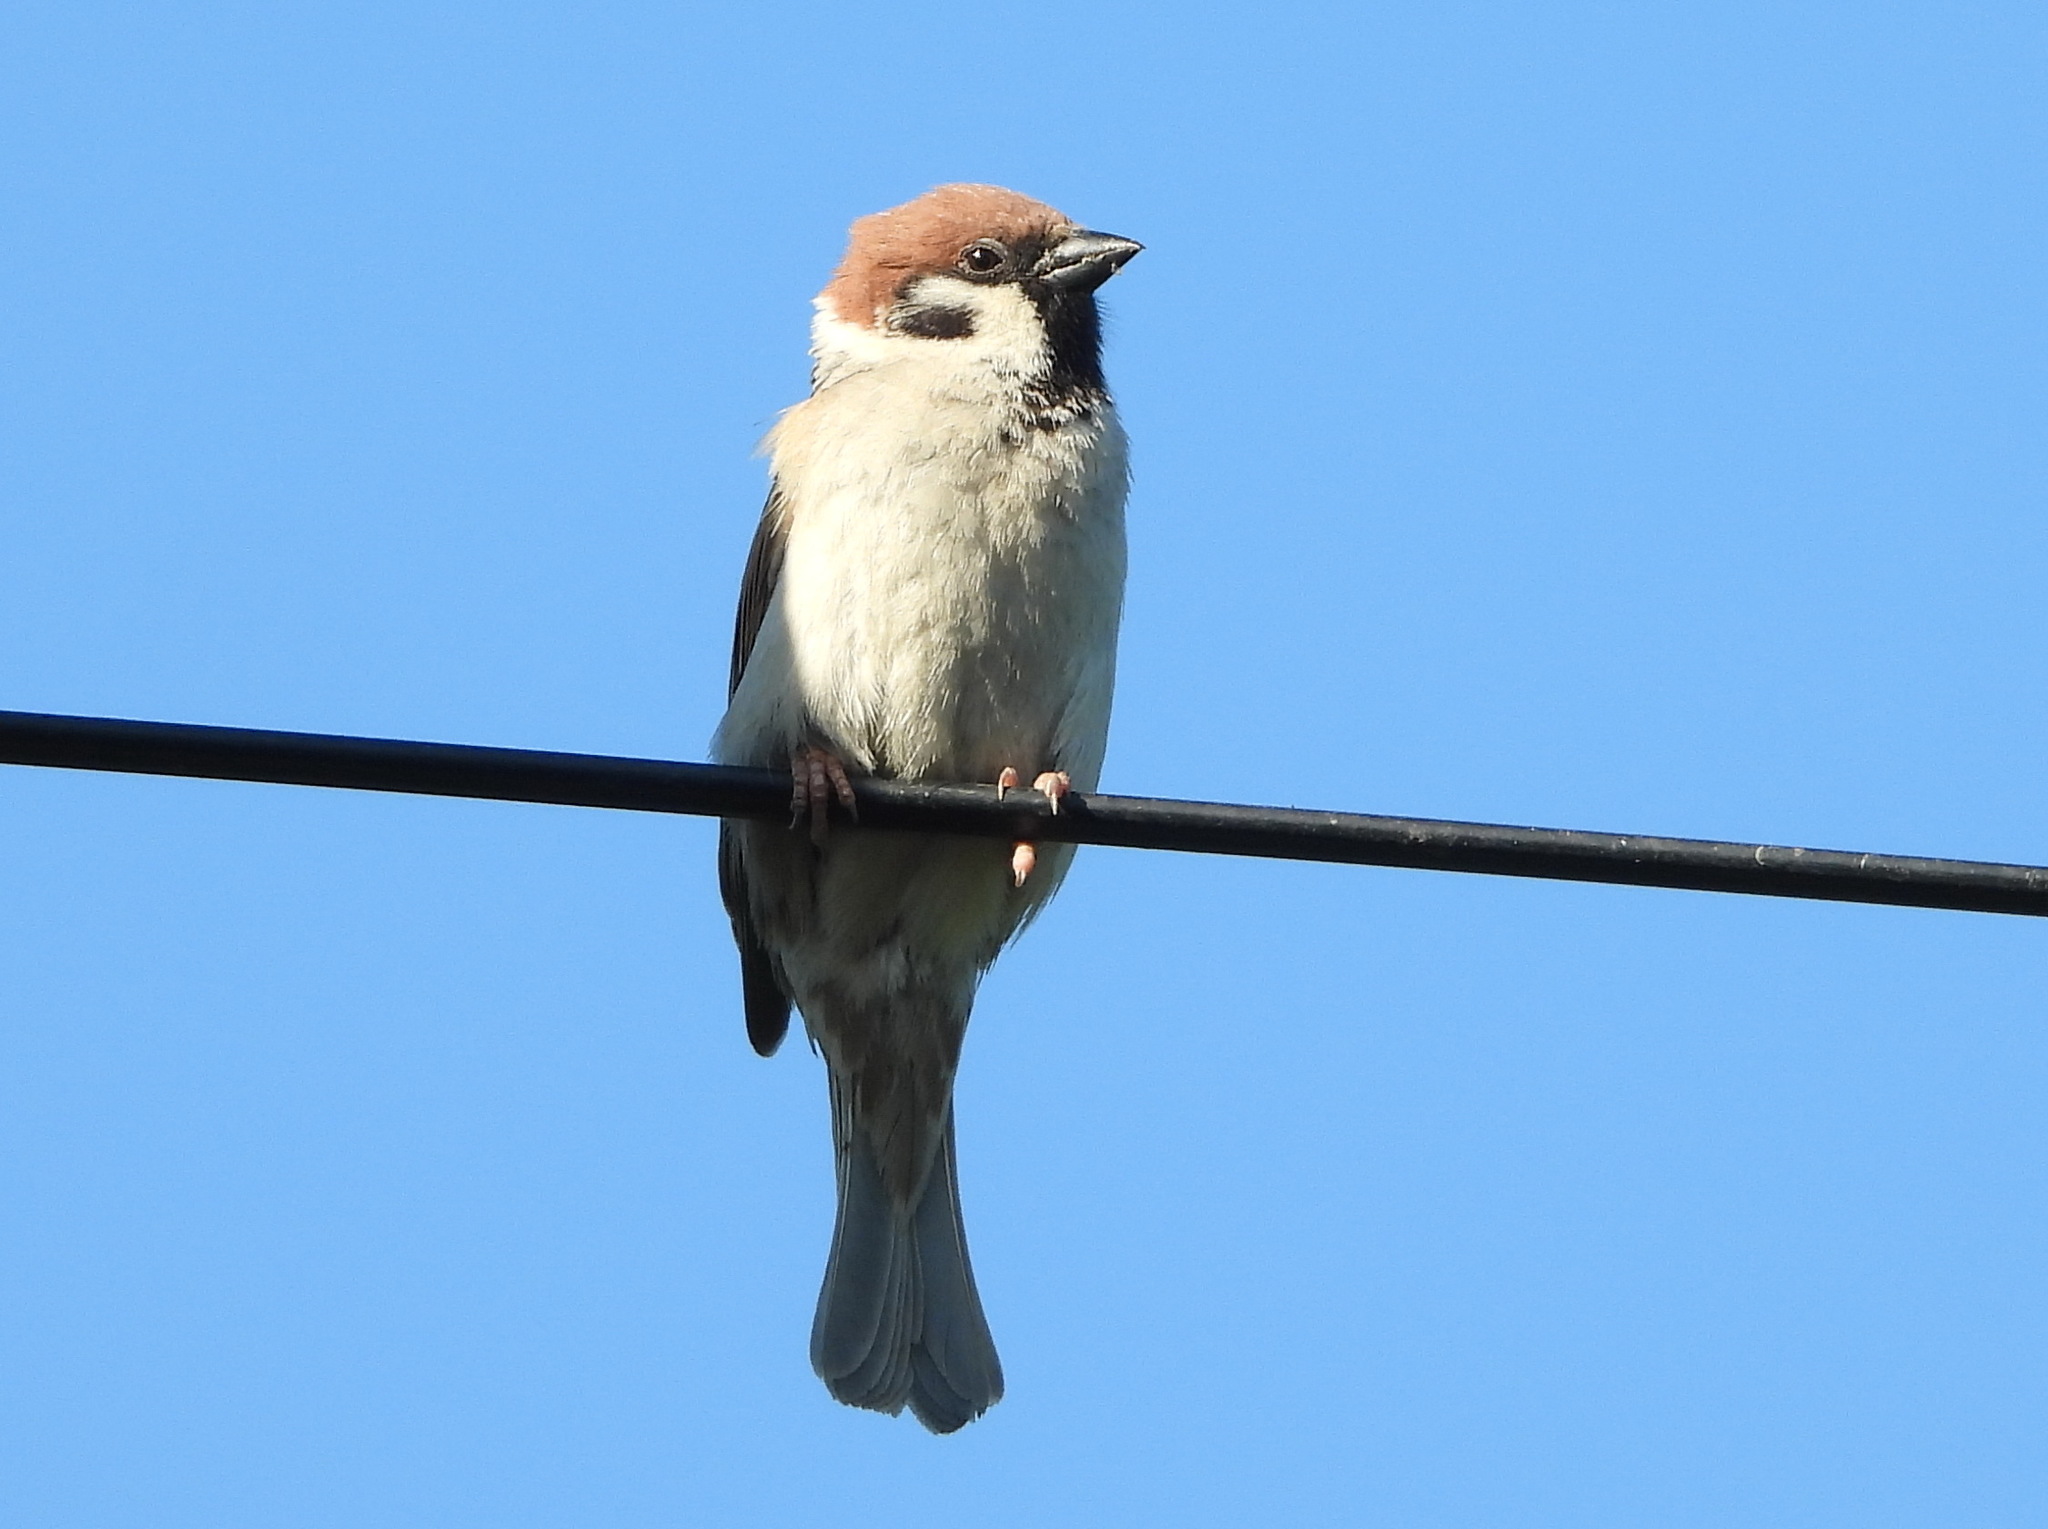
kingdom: Animalia
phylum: Chordata
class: Aves
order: Passeriformes
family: Passeridae
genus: Passer
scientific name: Passer montanus
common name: Eurasian tree sparrow
